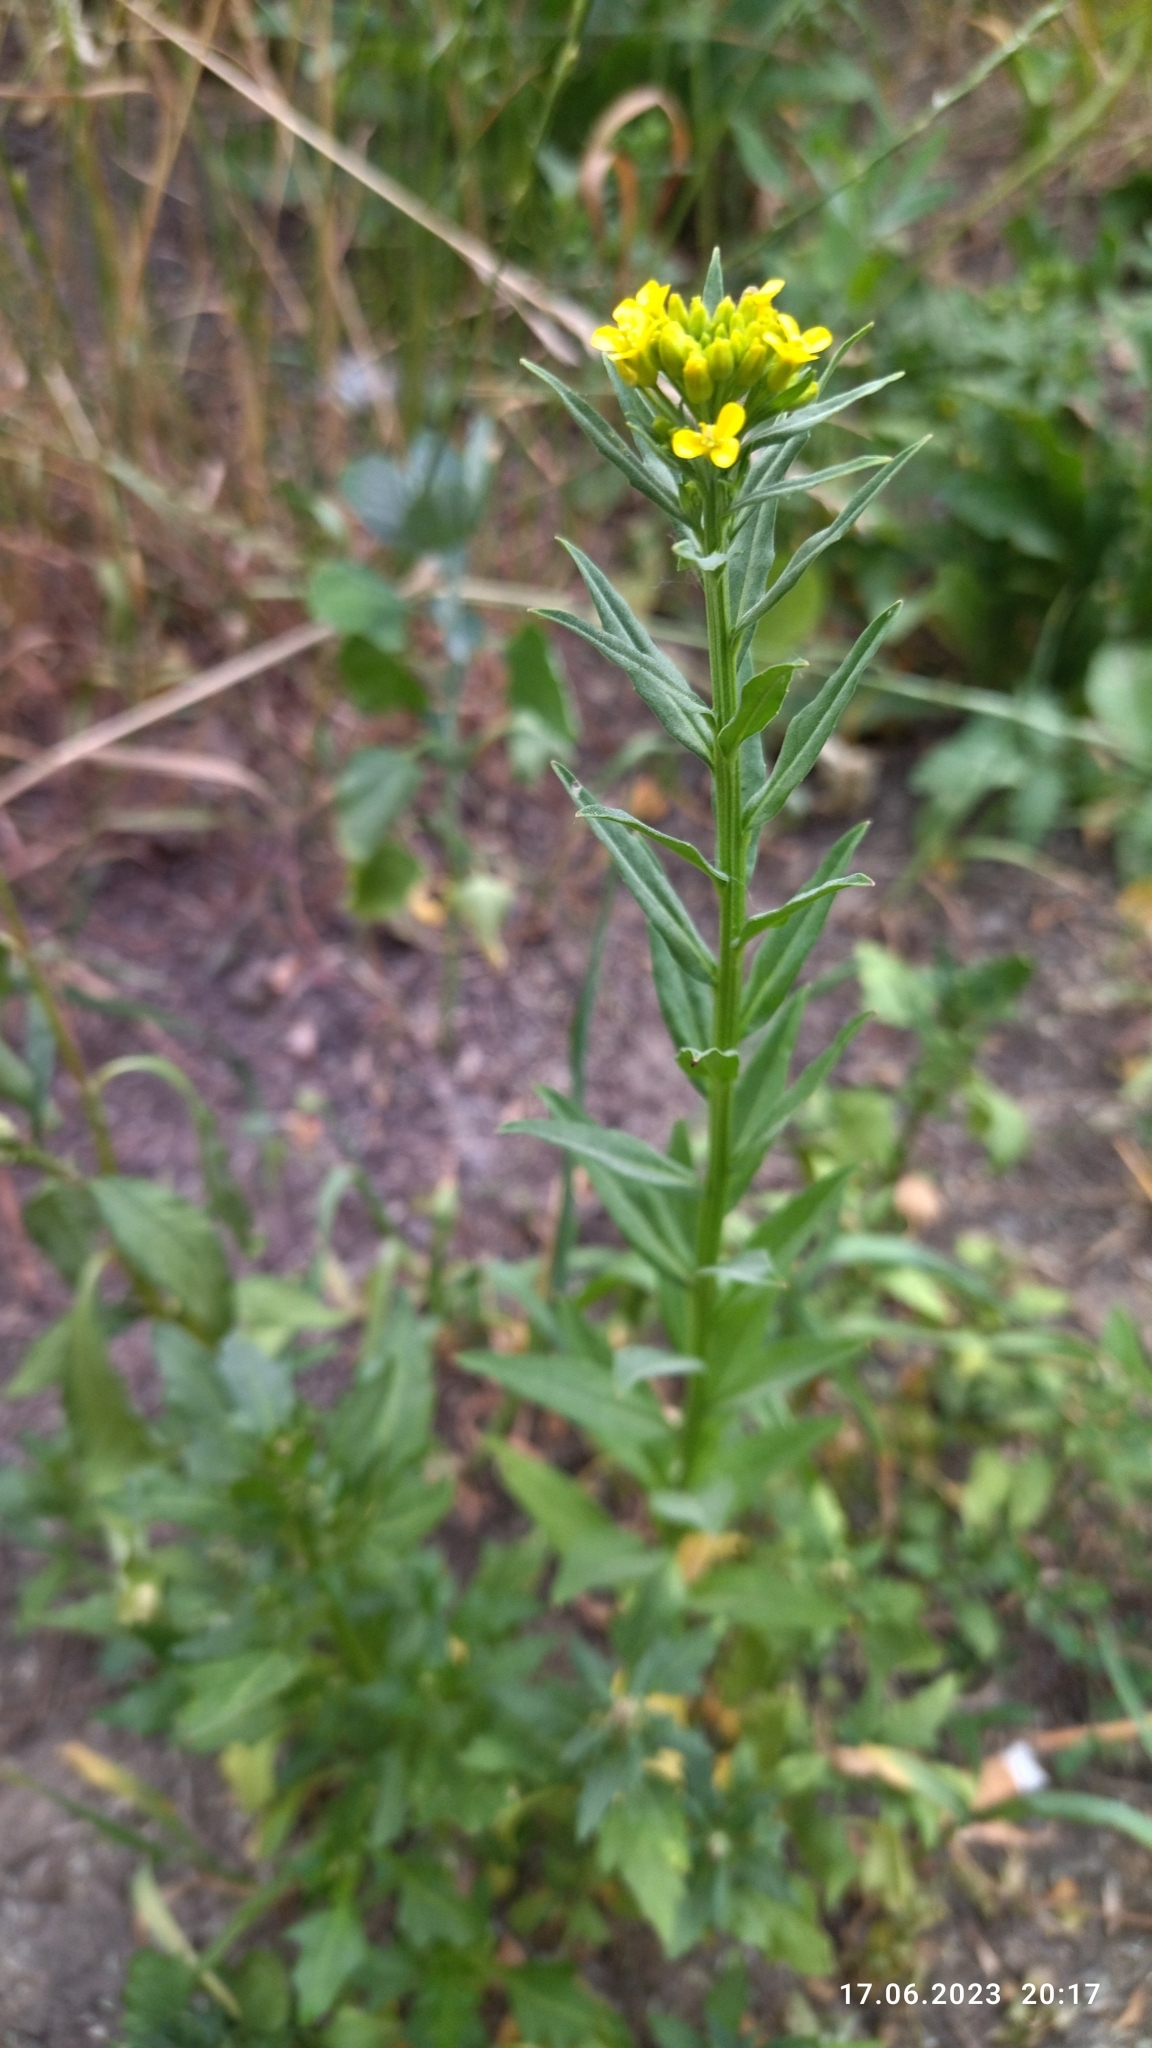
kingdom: Plantae
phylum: Tracheophyta
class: Magnoliopsida
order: Brassicales
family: Brassicaceae
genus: Erysimum
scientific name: Erysimum cheiranthoides
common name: Treacle mustard
